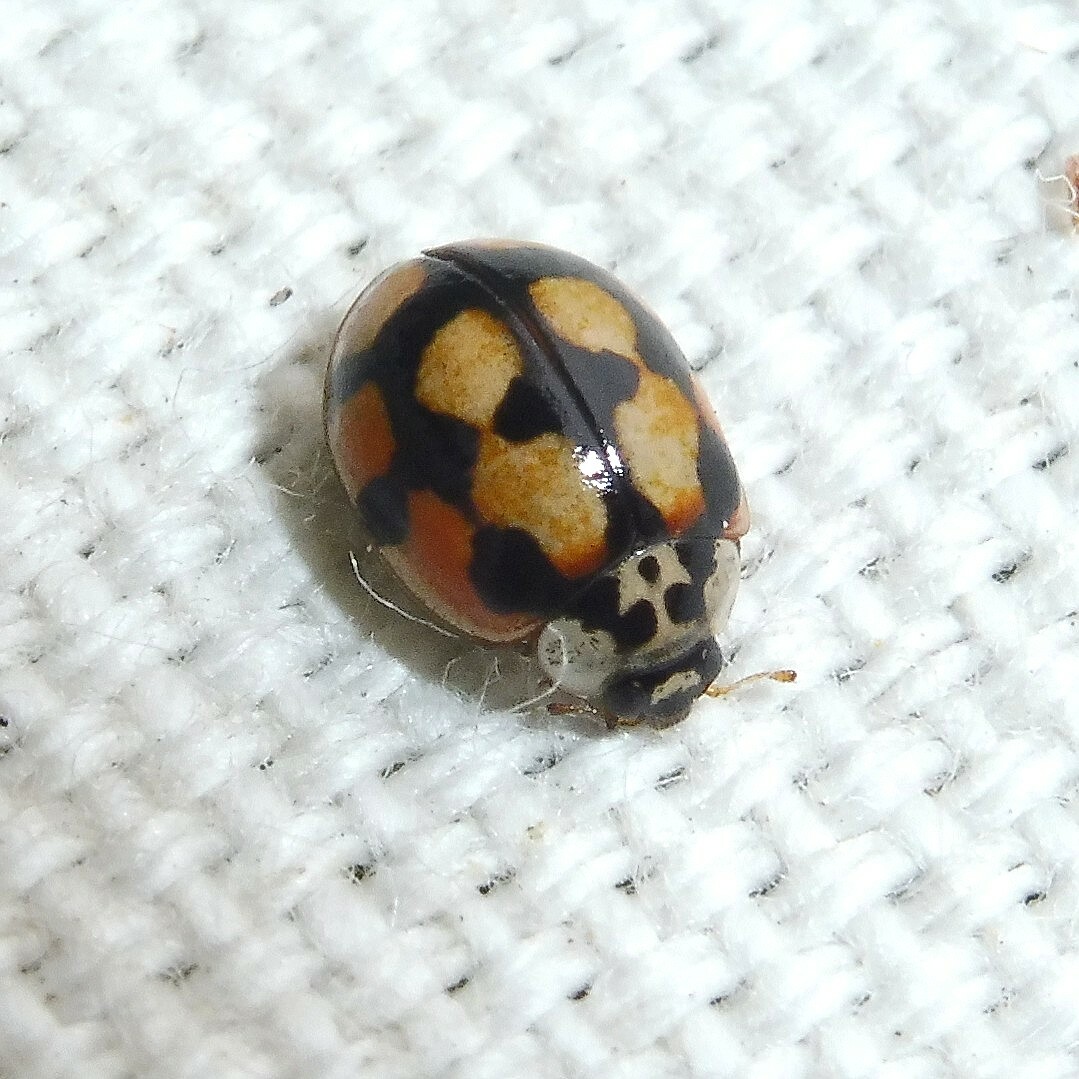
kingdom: Animalia
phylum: Arthropoda
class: Insecta
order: Coleoptera
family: Coccinellidae
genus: Adalia
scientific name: Adalia decempunctata
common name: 10-spot ladybird
